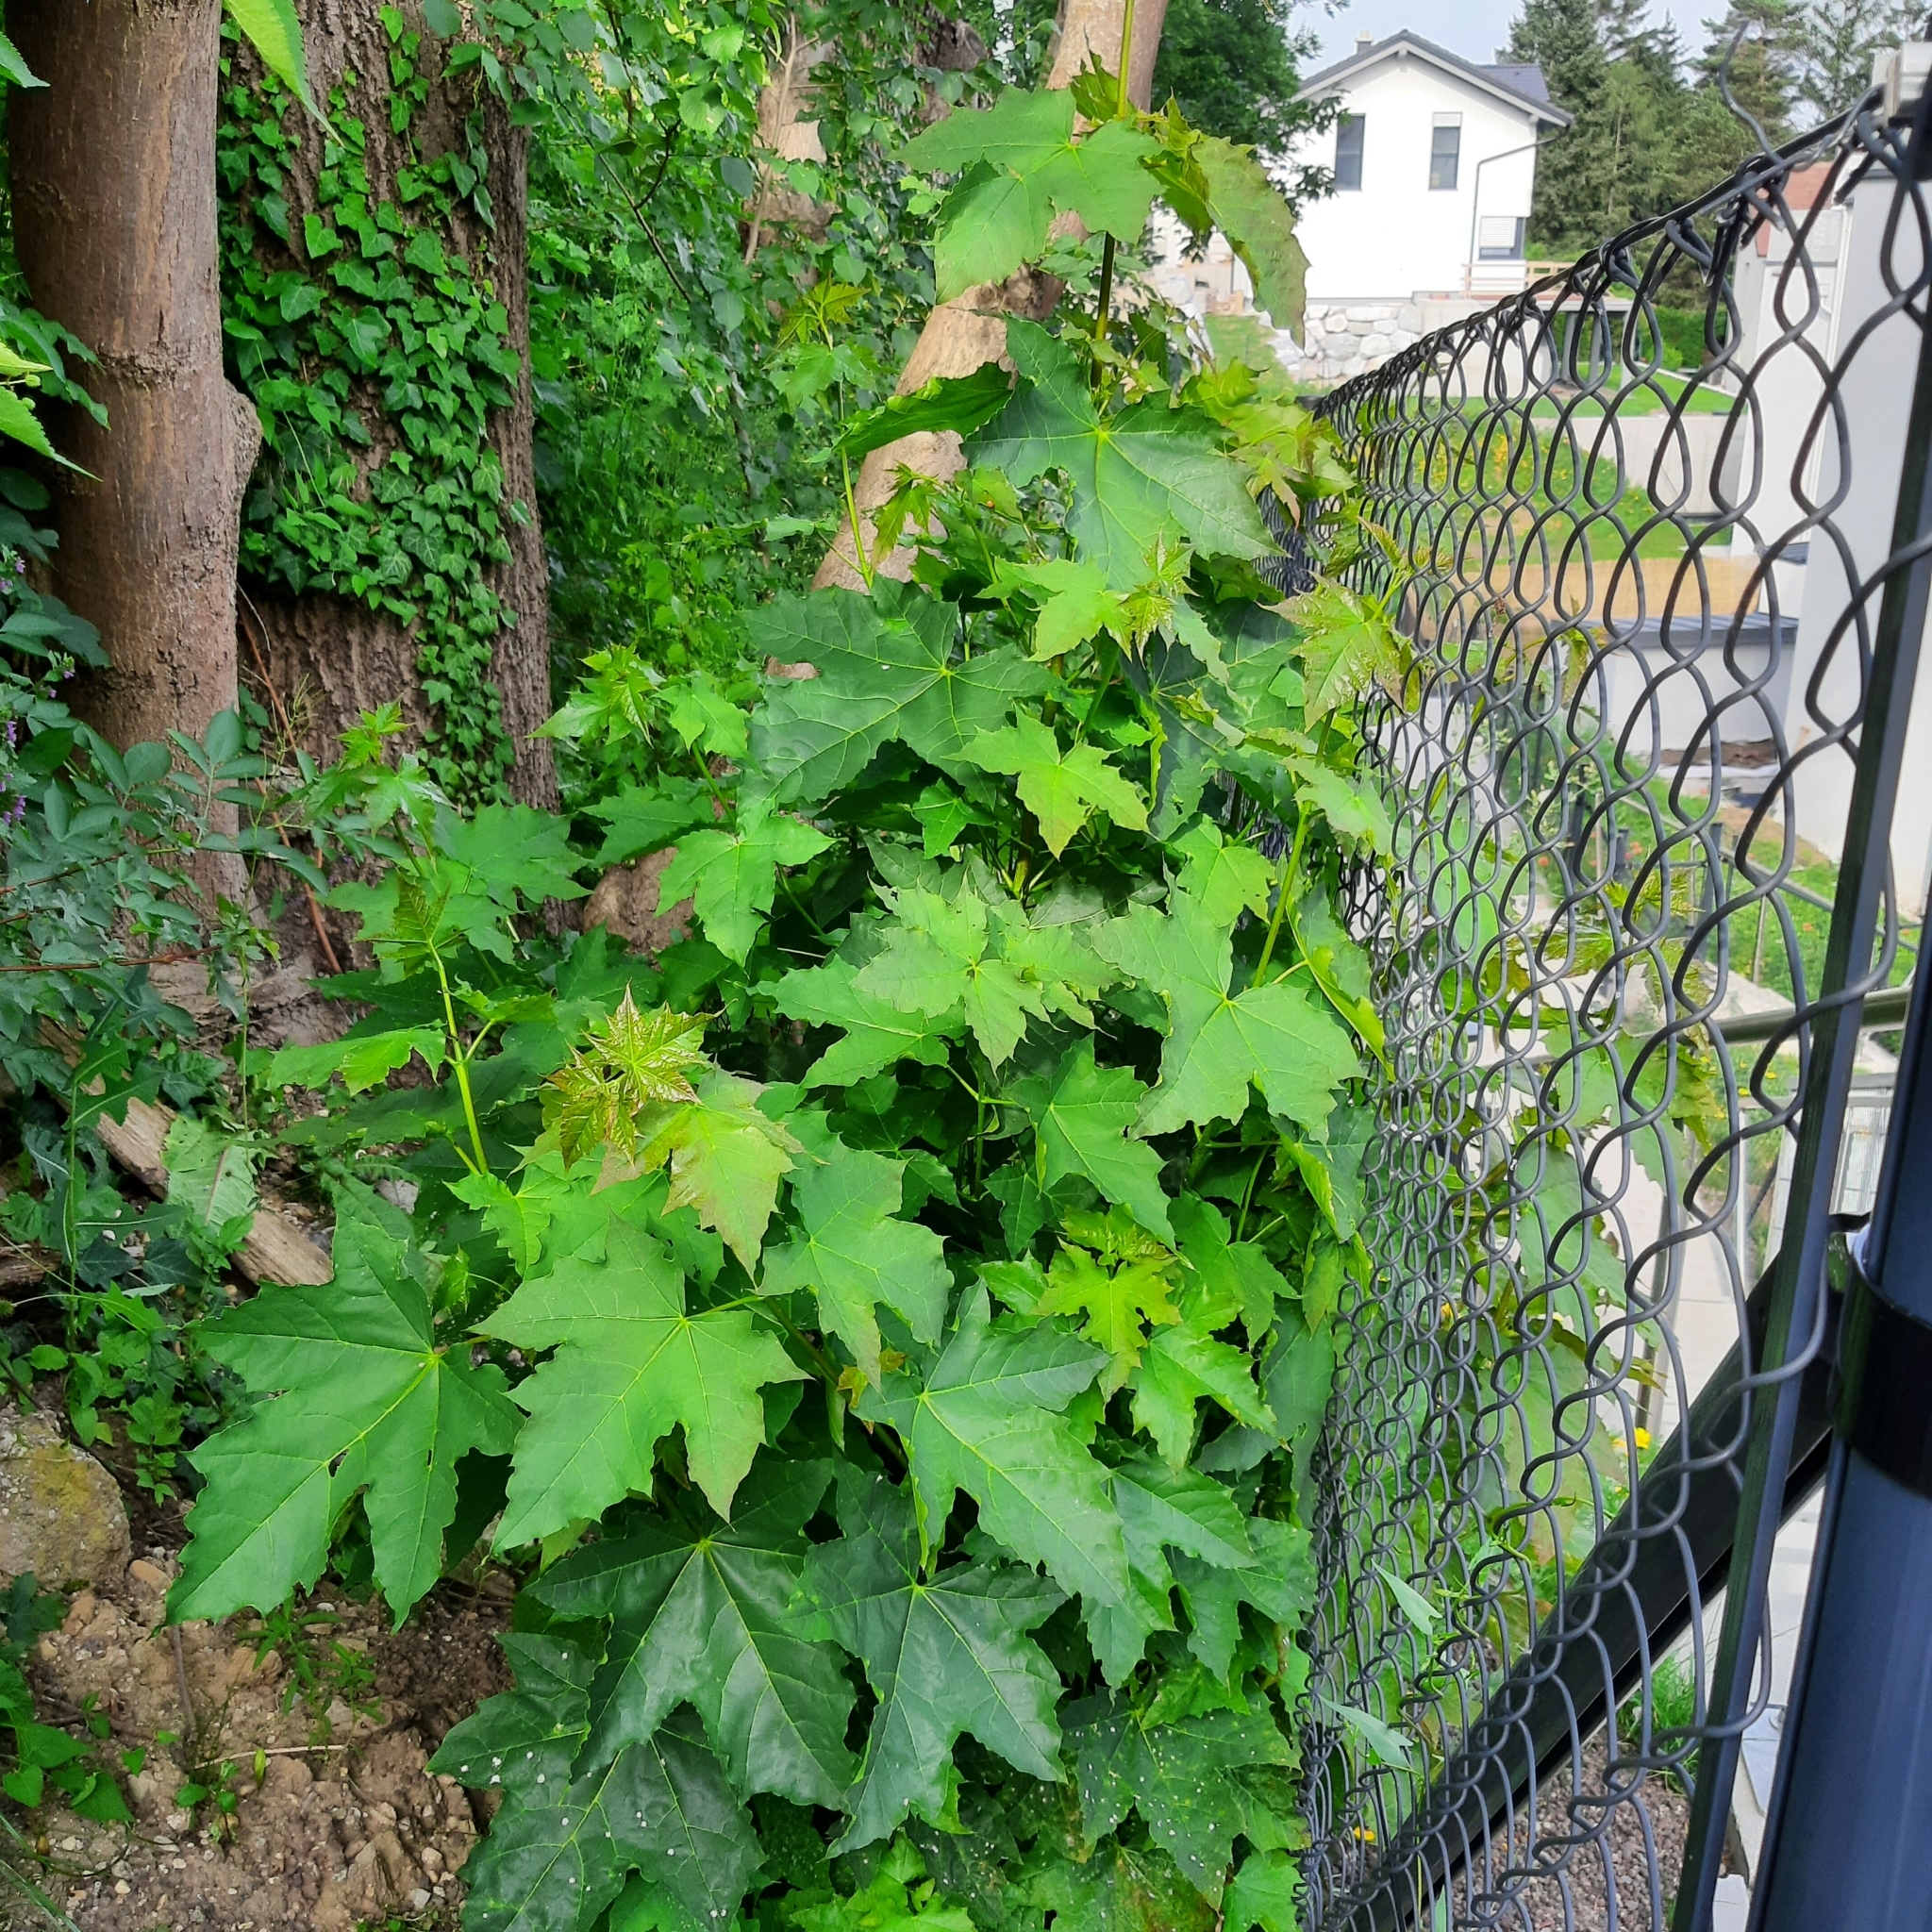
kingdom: Plantae
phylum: Tracheophyta
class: Magnoliopsida
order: Sapindales
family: Sapindaceae
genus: Acer
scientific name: Acer platanoides
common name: Norway maple
